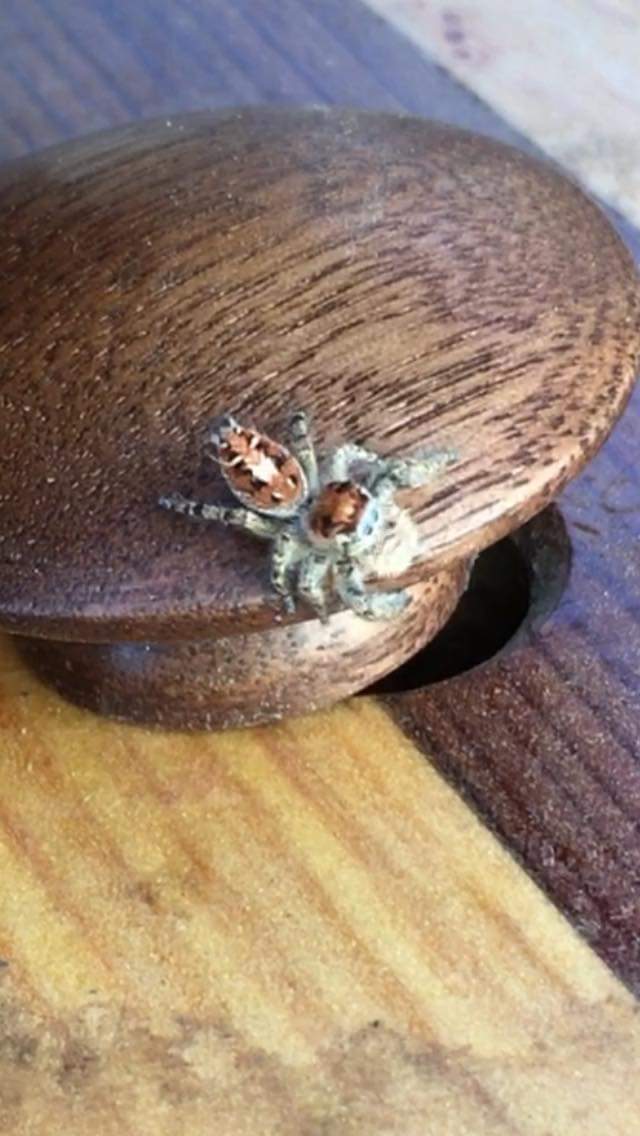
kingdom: Animalia
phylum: Arthropoda
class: Arachnida
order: Araneae
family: Salticidae
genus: Phidippus
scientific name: Phidippus comatus
